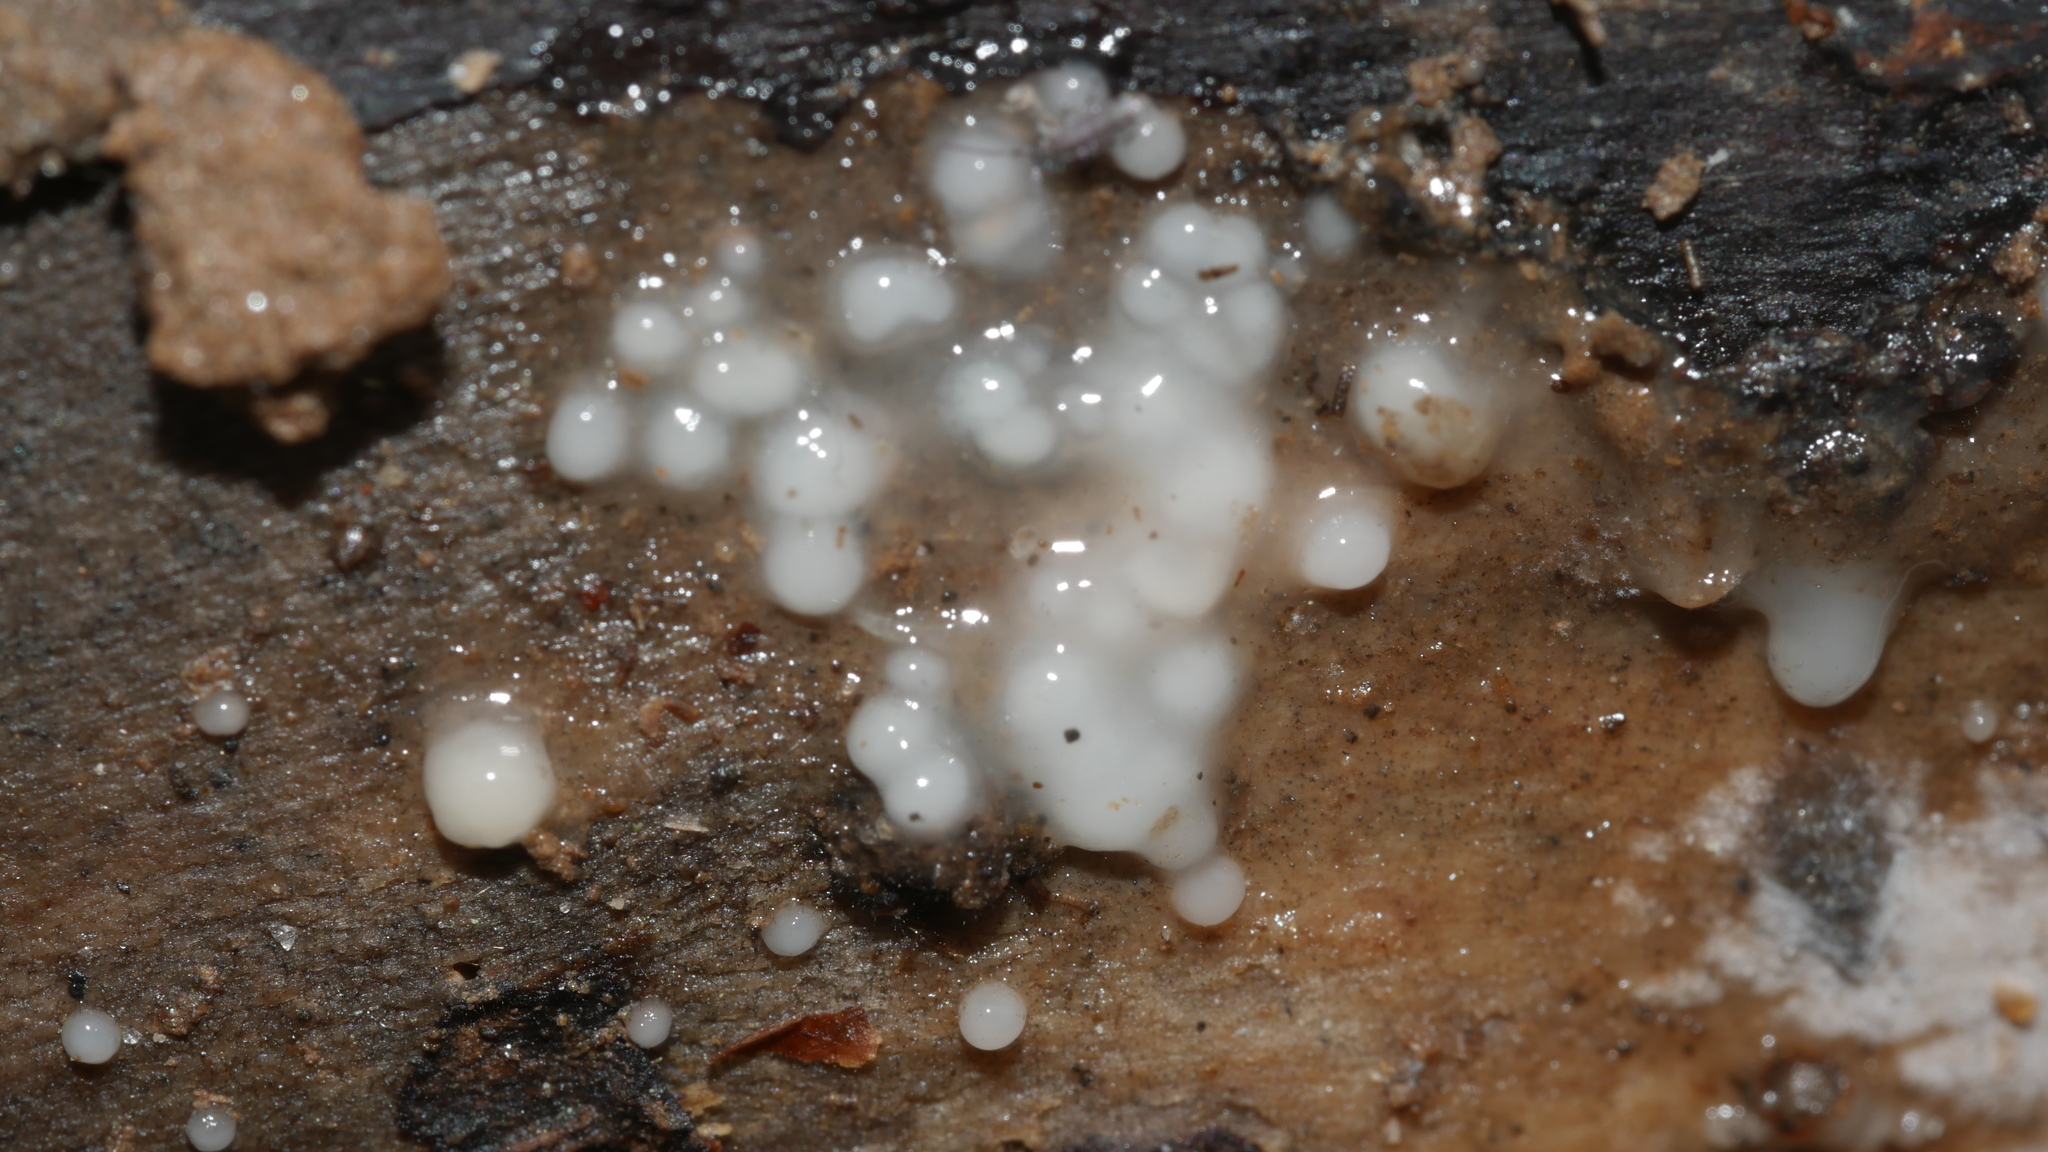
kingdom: Fungi
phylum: Basidiomycota
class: Atractiellomycetes
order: Atractiellales
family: Phleogenaceae
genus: Helicogloea
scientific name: Helicogloea compressa
